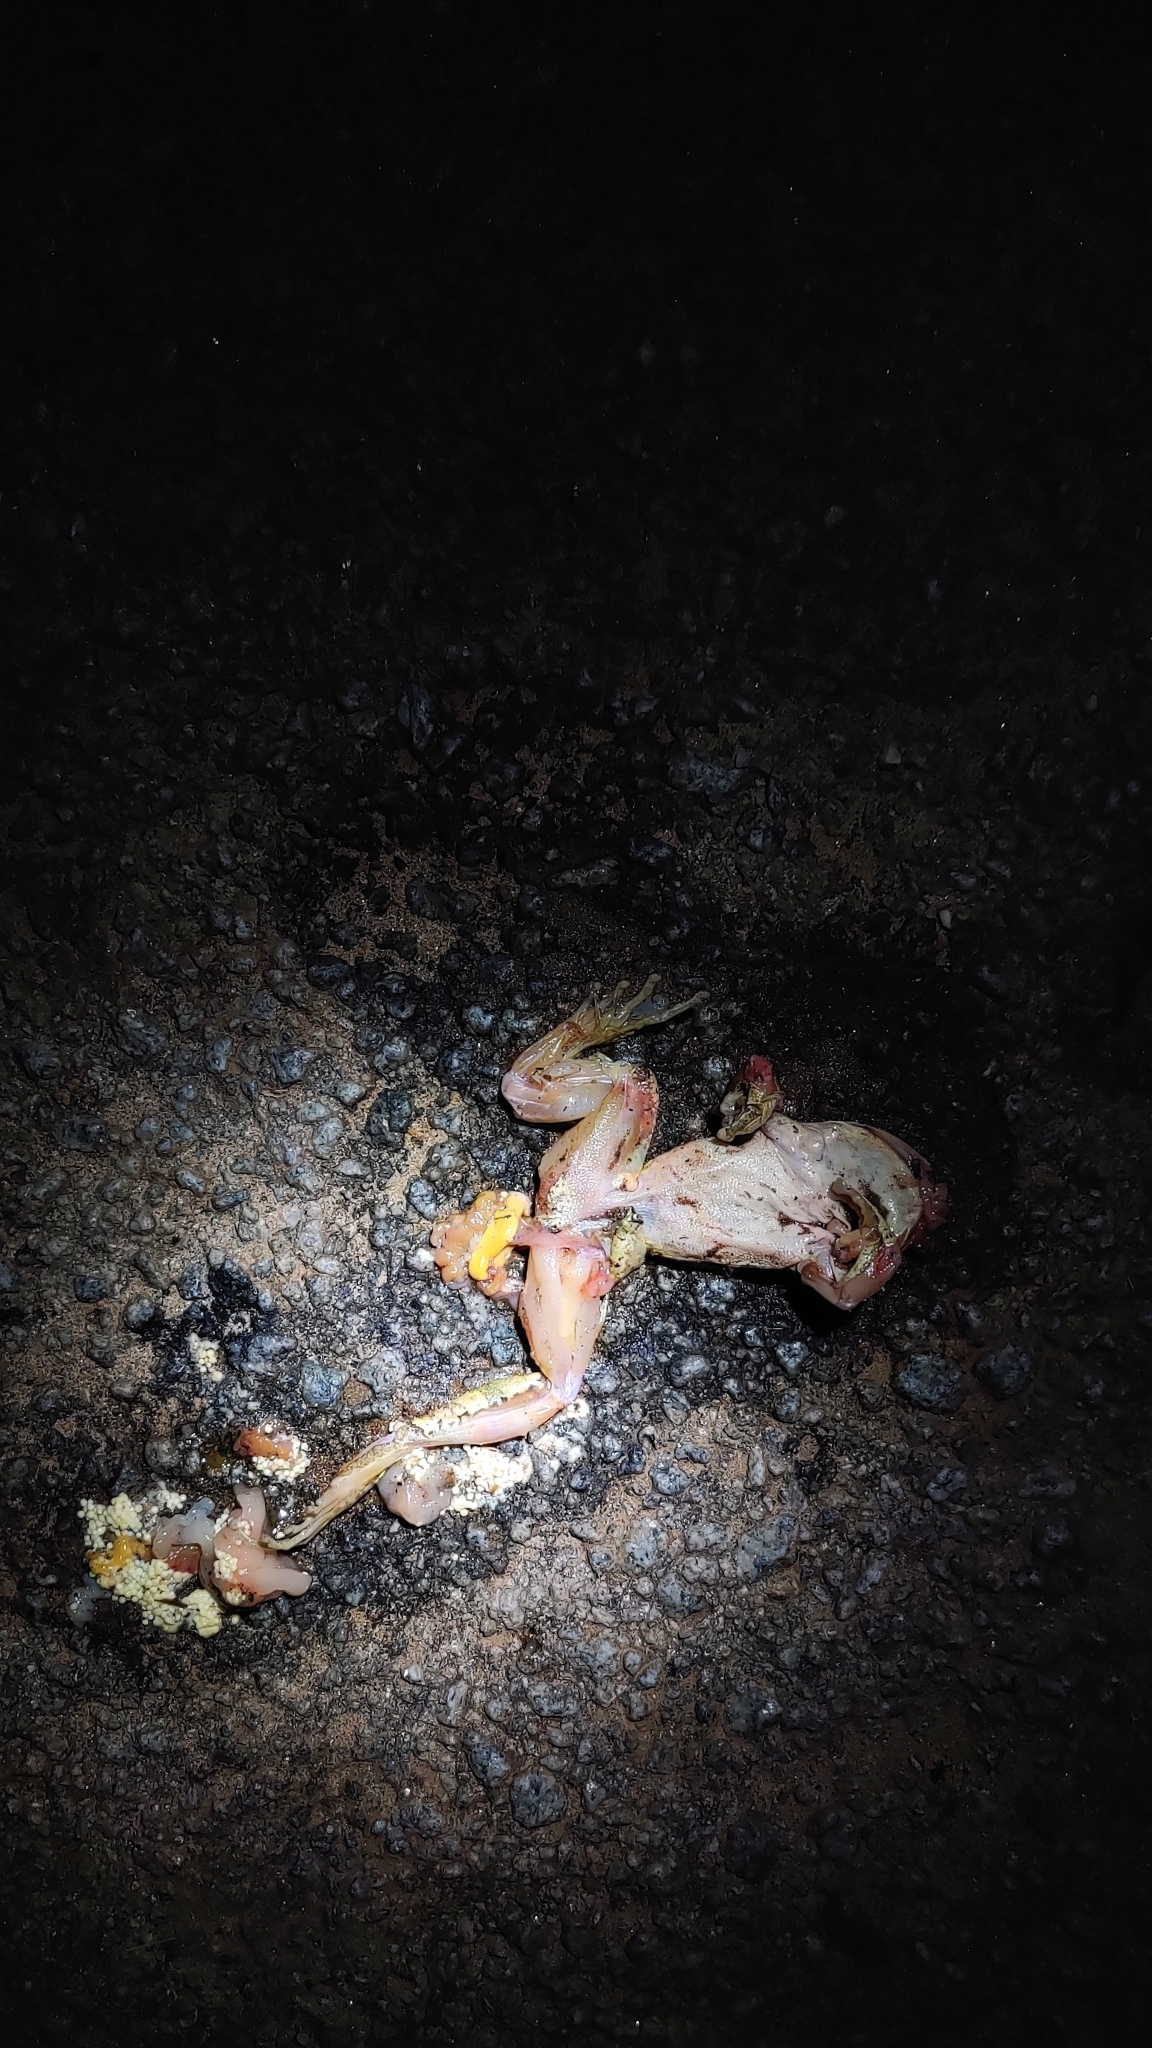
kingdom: Animalia
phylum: Chordata
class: Amphibia
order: Anura
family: Rhacophoridae
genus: Polypedates
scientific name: Polypedates maculatus
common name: Himalayan tree frog
